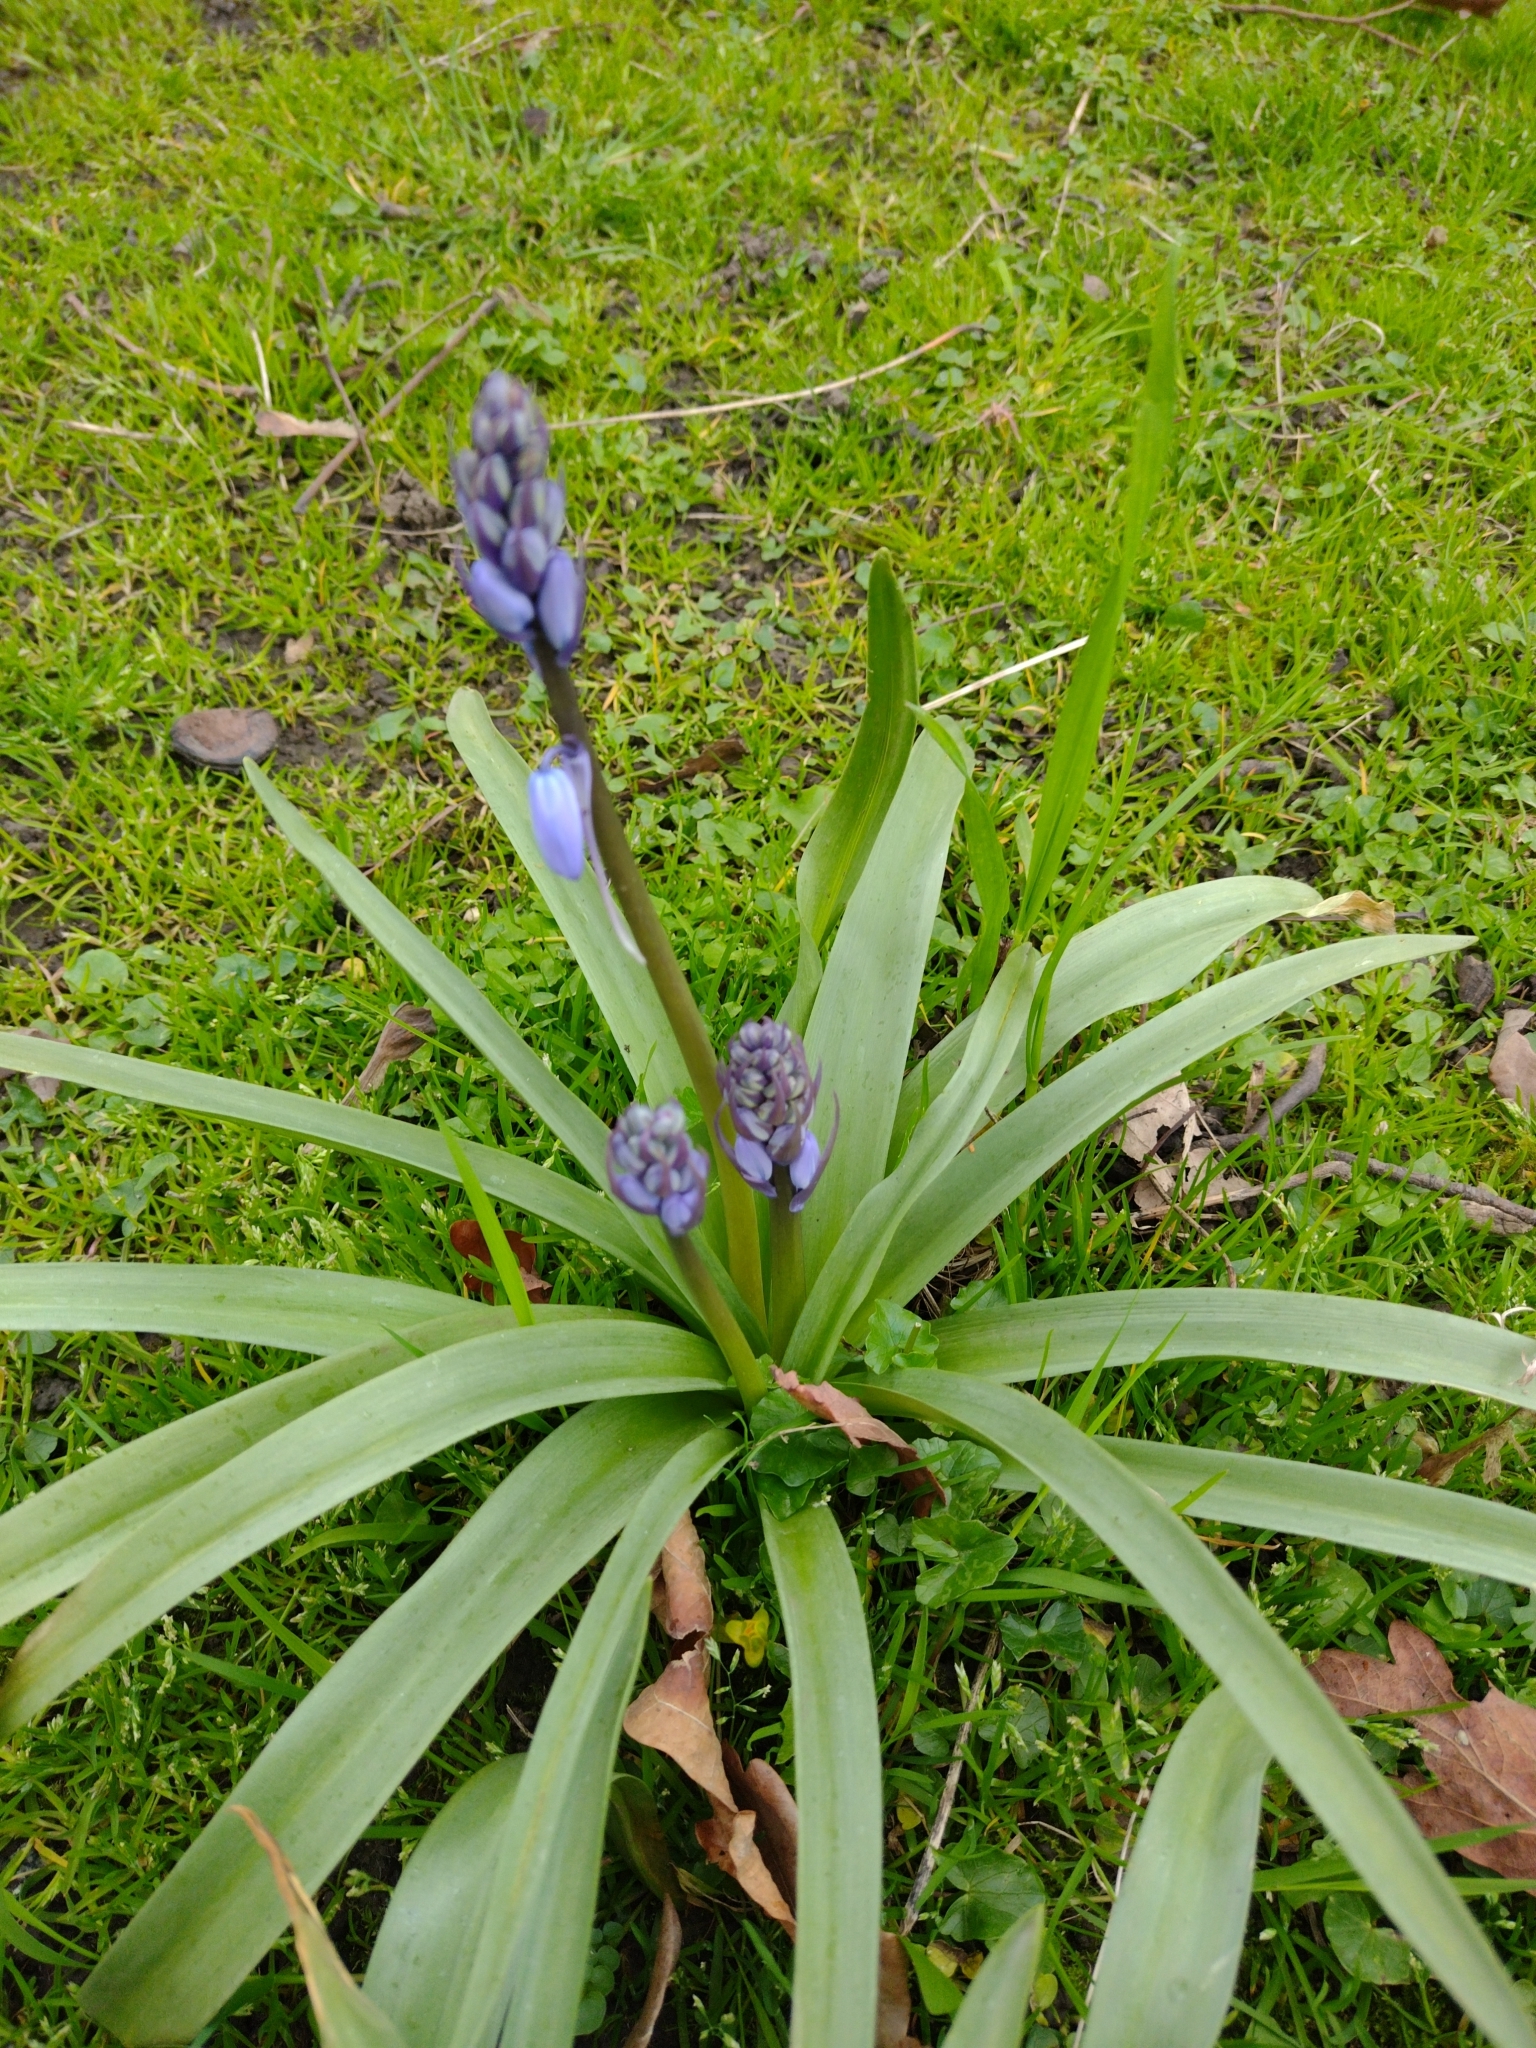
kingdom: Plantae
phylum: Tracheophyta
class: Liliopsida
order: Asparagales
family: Asparagaceae
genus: Hyacinthoides
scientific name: Hyacinthoides hispanica
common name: Spanish bluebell
